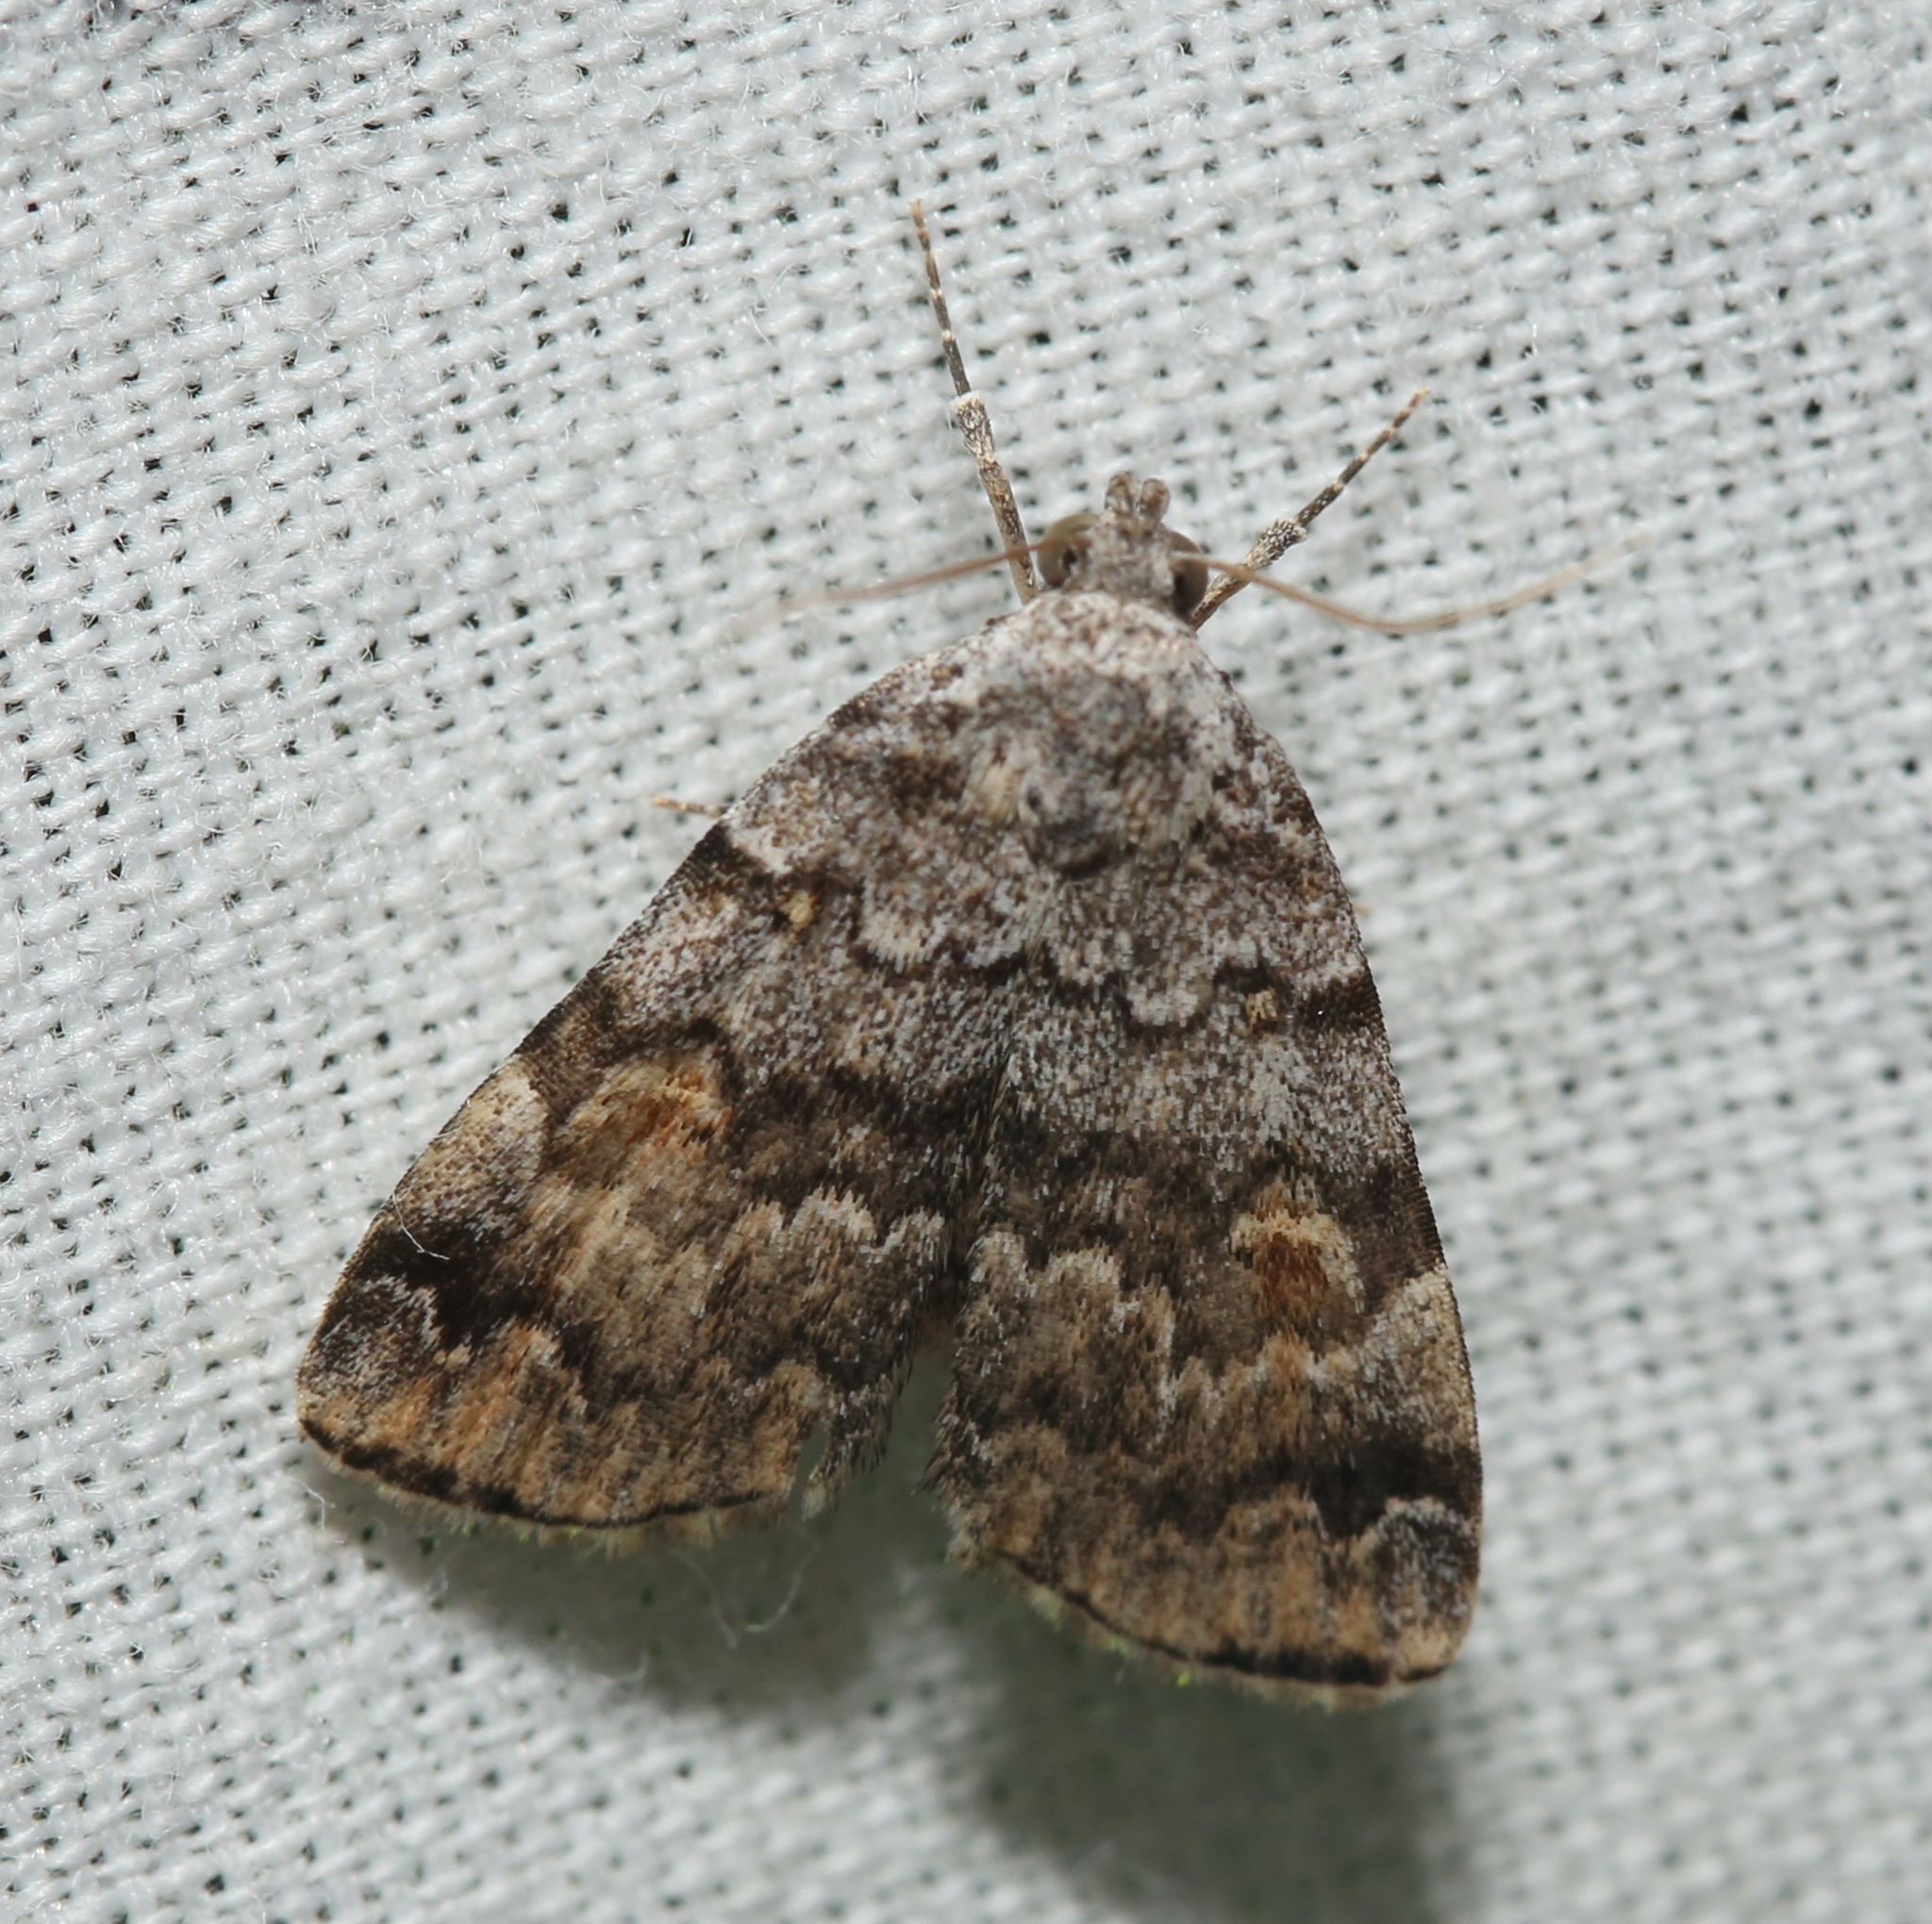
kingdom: Animalia
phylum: Arthropoda
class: Insecta
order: Lepidoptera
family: Erebidae
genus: Idia
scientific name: Idia americalis
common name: American idia moth
